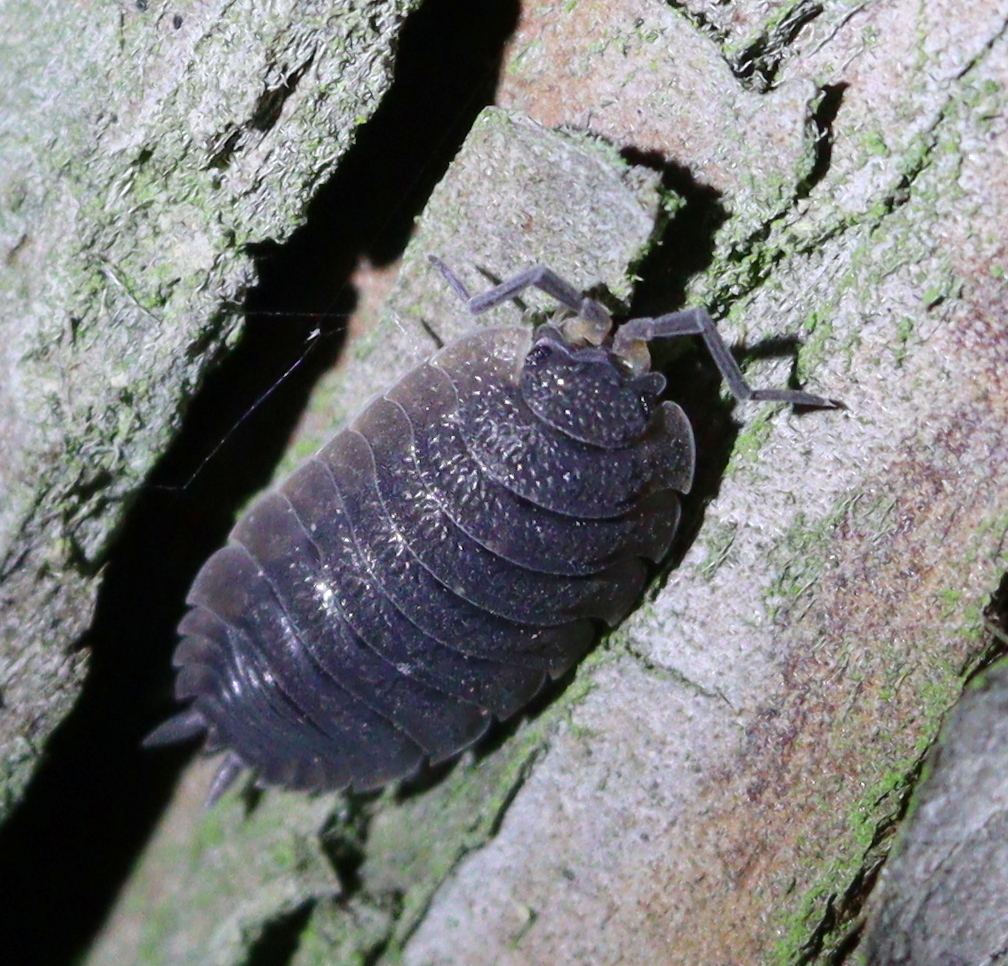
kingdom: Animalia
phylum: Arthropoda
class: Malacostraca
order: Isopoda
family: Porcellionidae
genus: Porcellio
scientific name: Porcellio scaber
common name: Common rough woodlouse
